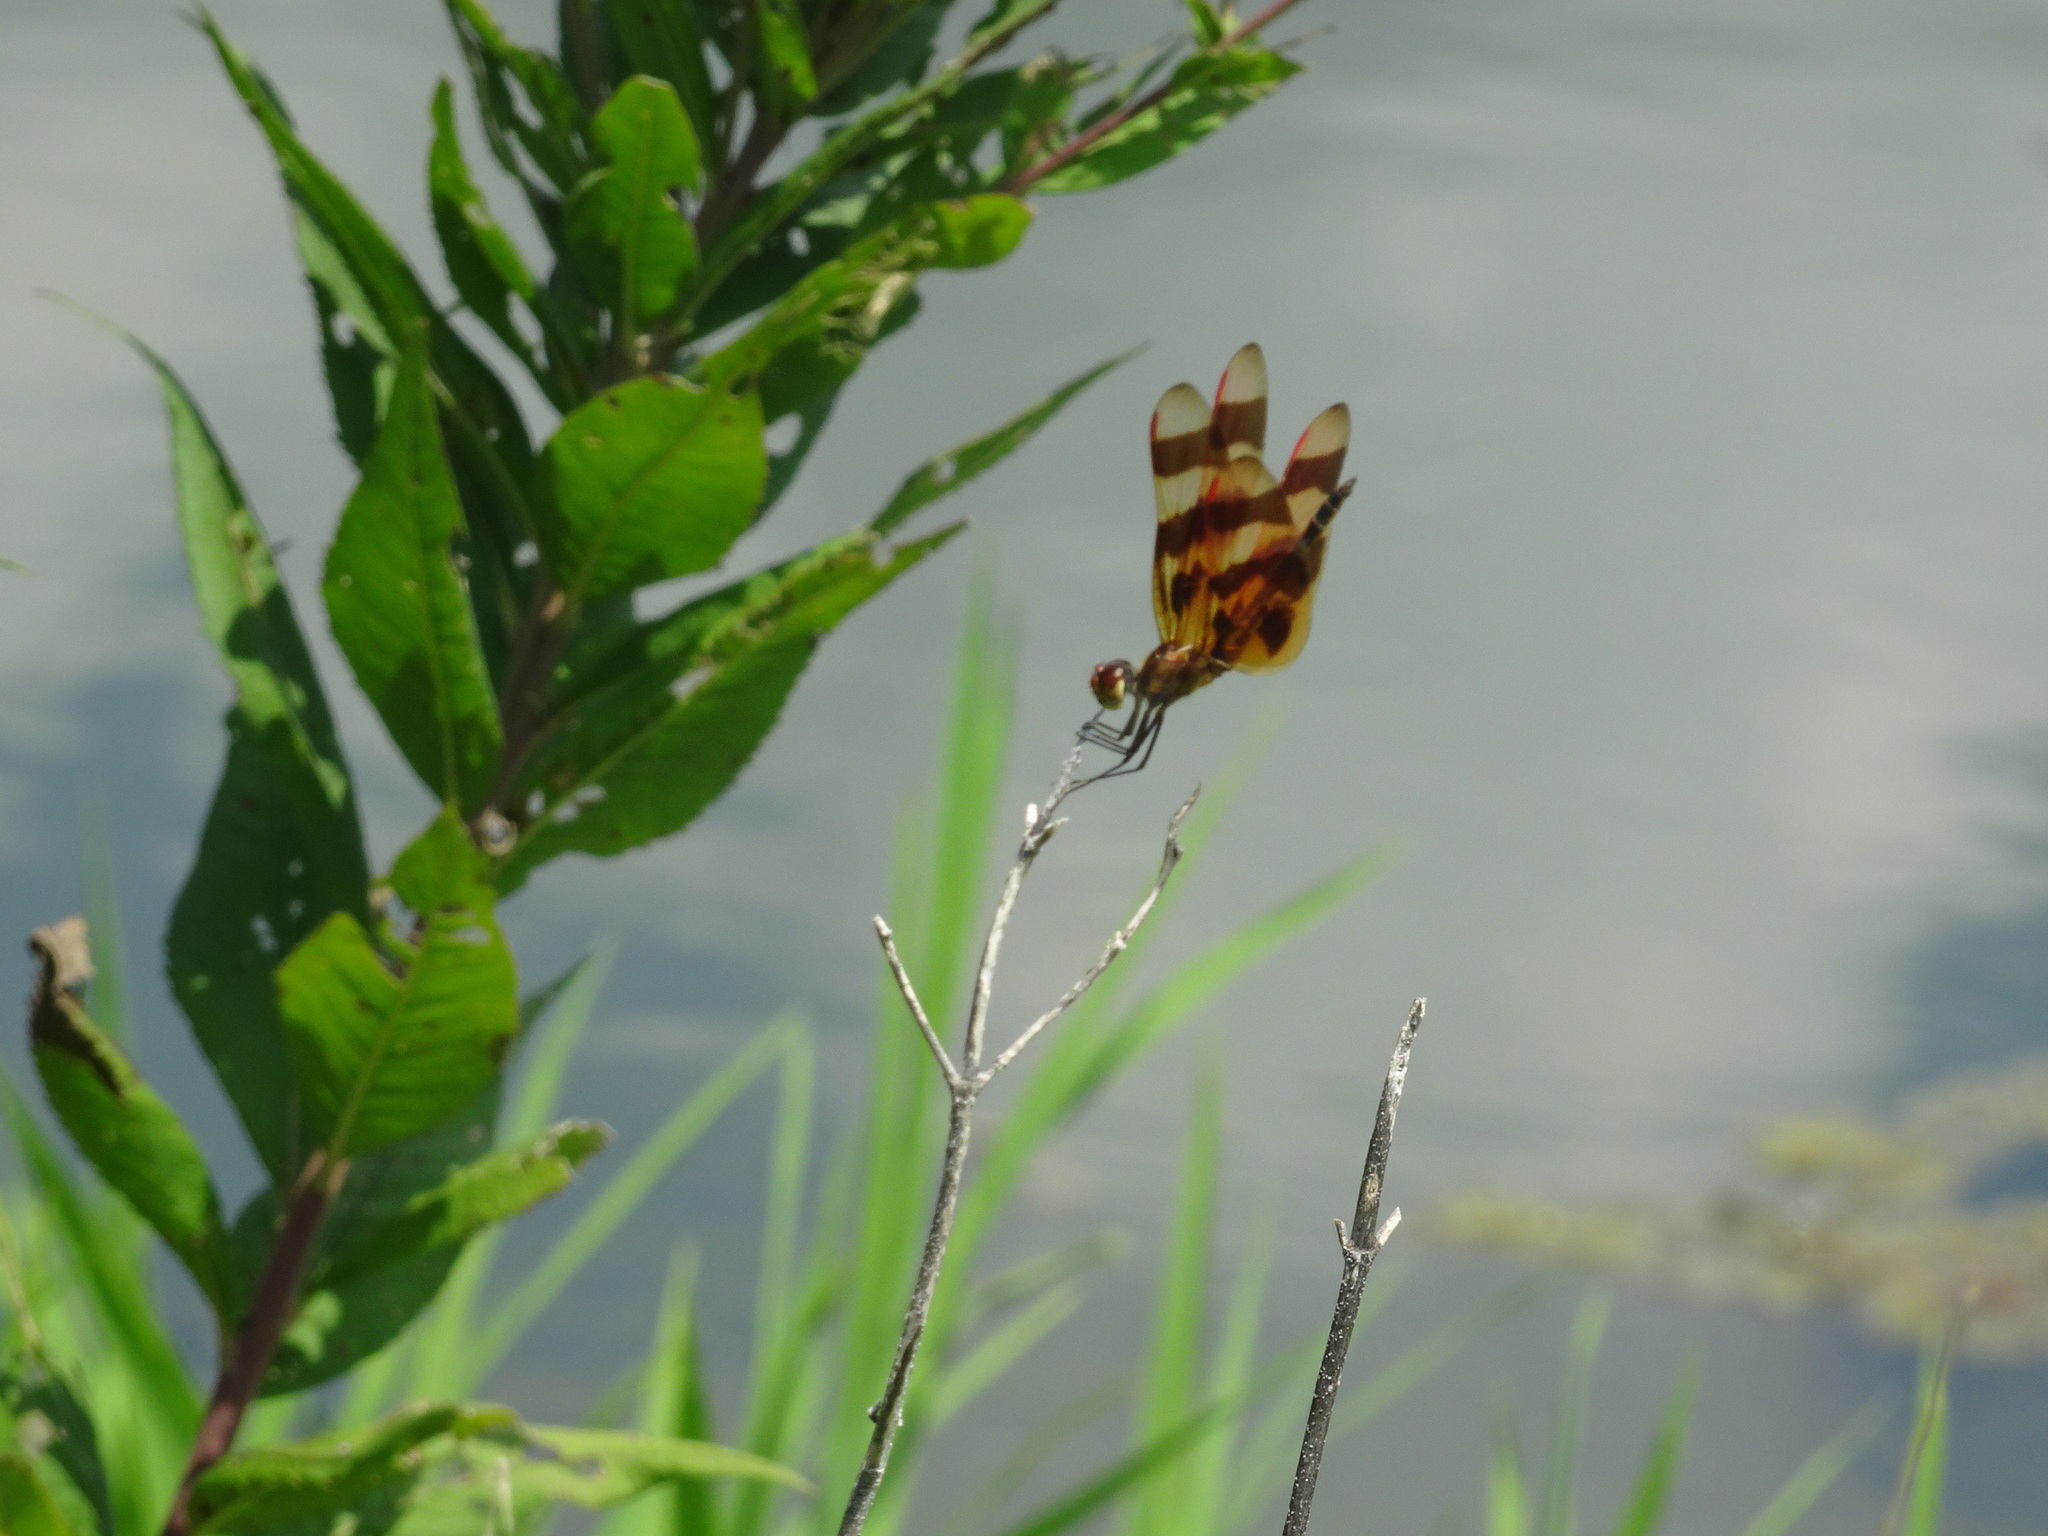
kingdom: Animalia
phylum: Arthropoda
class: Insecta
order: Odonata
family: Libellulidae
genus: Celithemis
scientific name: Celithemis eponina
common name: Halloween pennant
